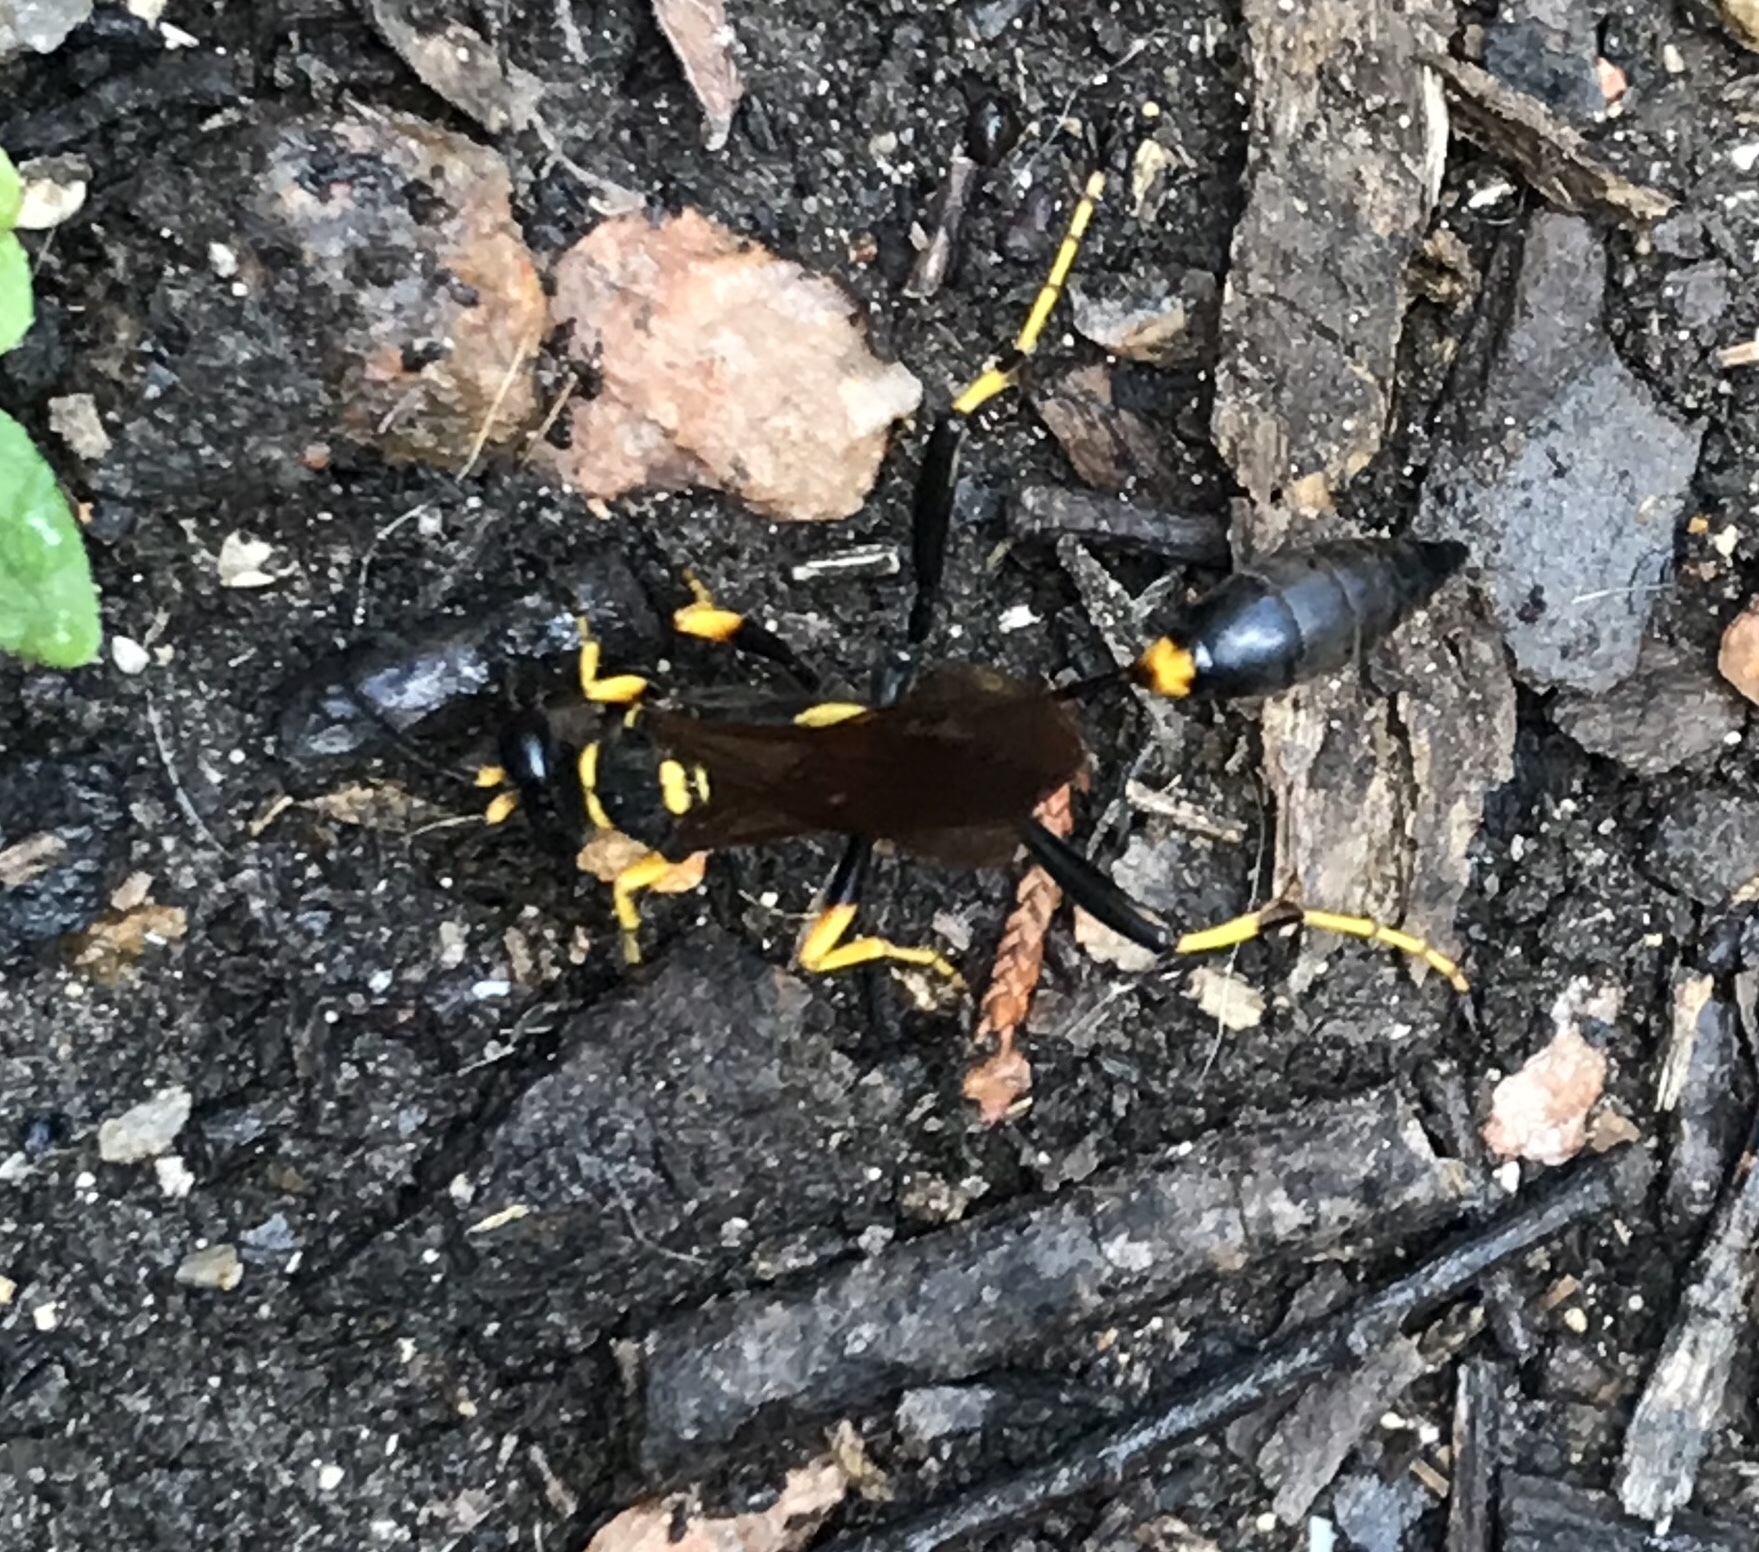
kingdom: Animalia
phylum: Arthropoda
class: Insecta
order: Hymenoptera
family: Sphecidae
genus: Sceliphron
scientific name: Sceliphron caementarium
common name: Mud dauber
